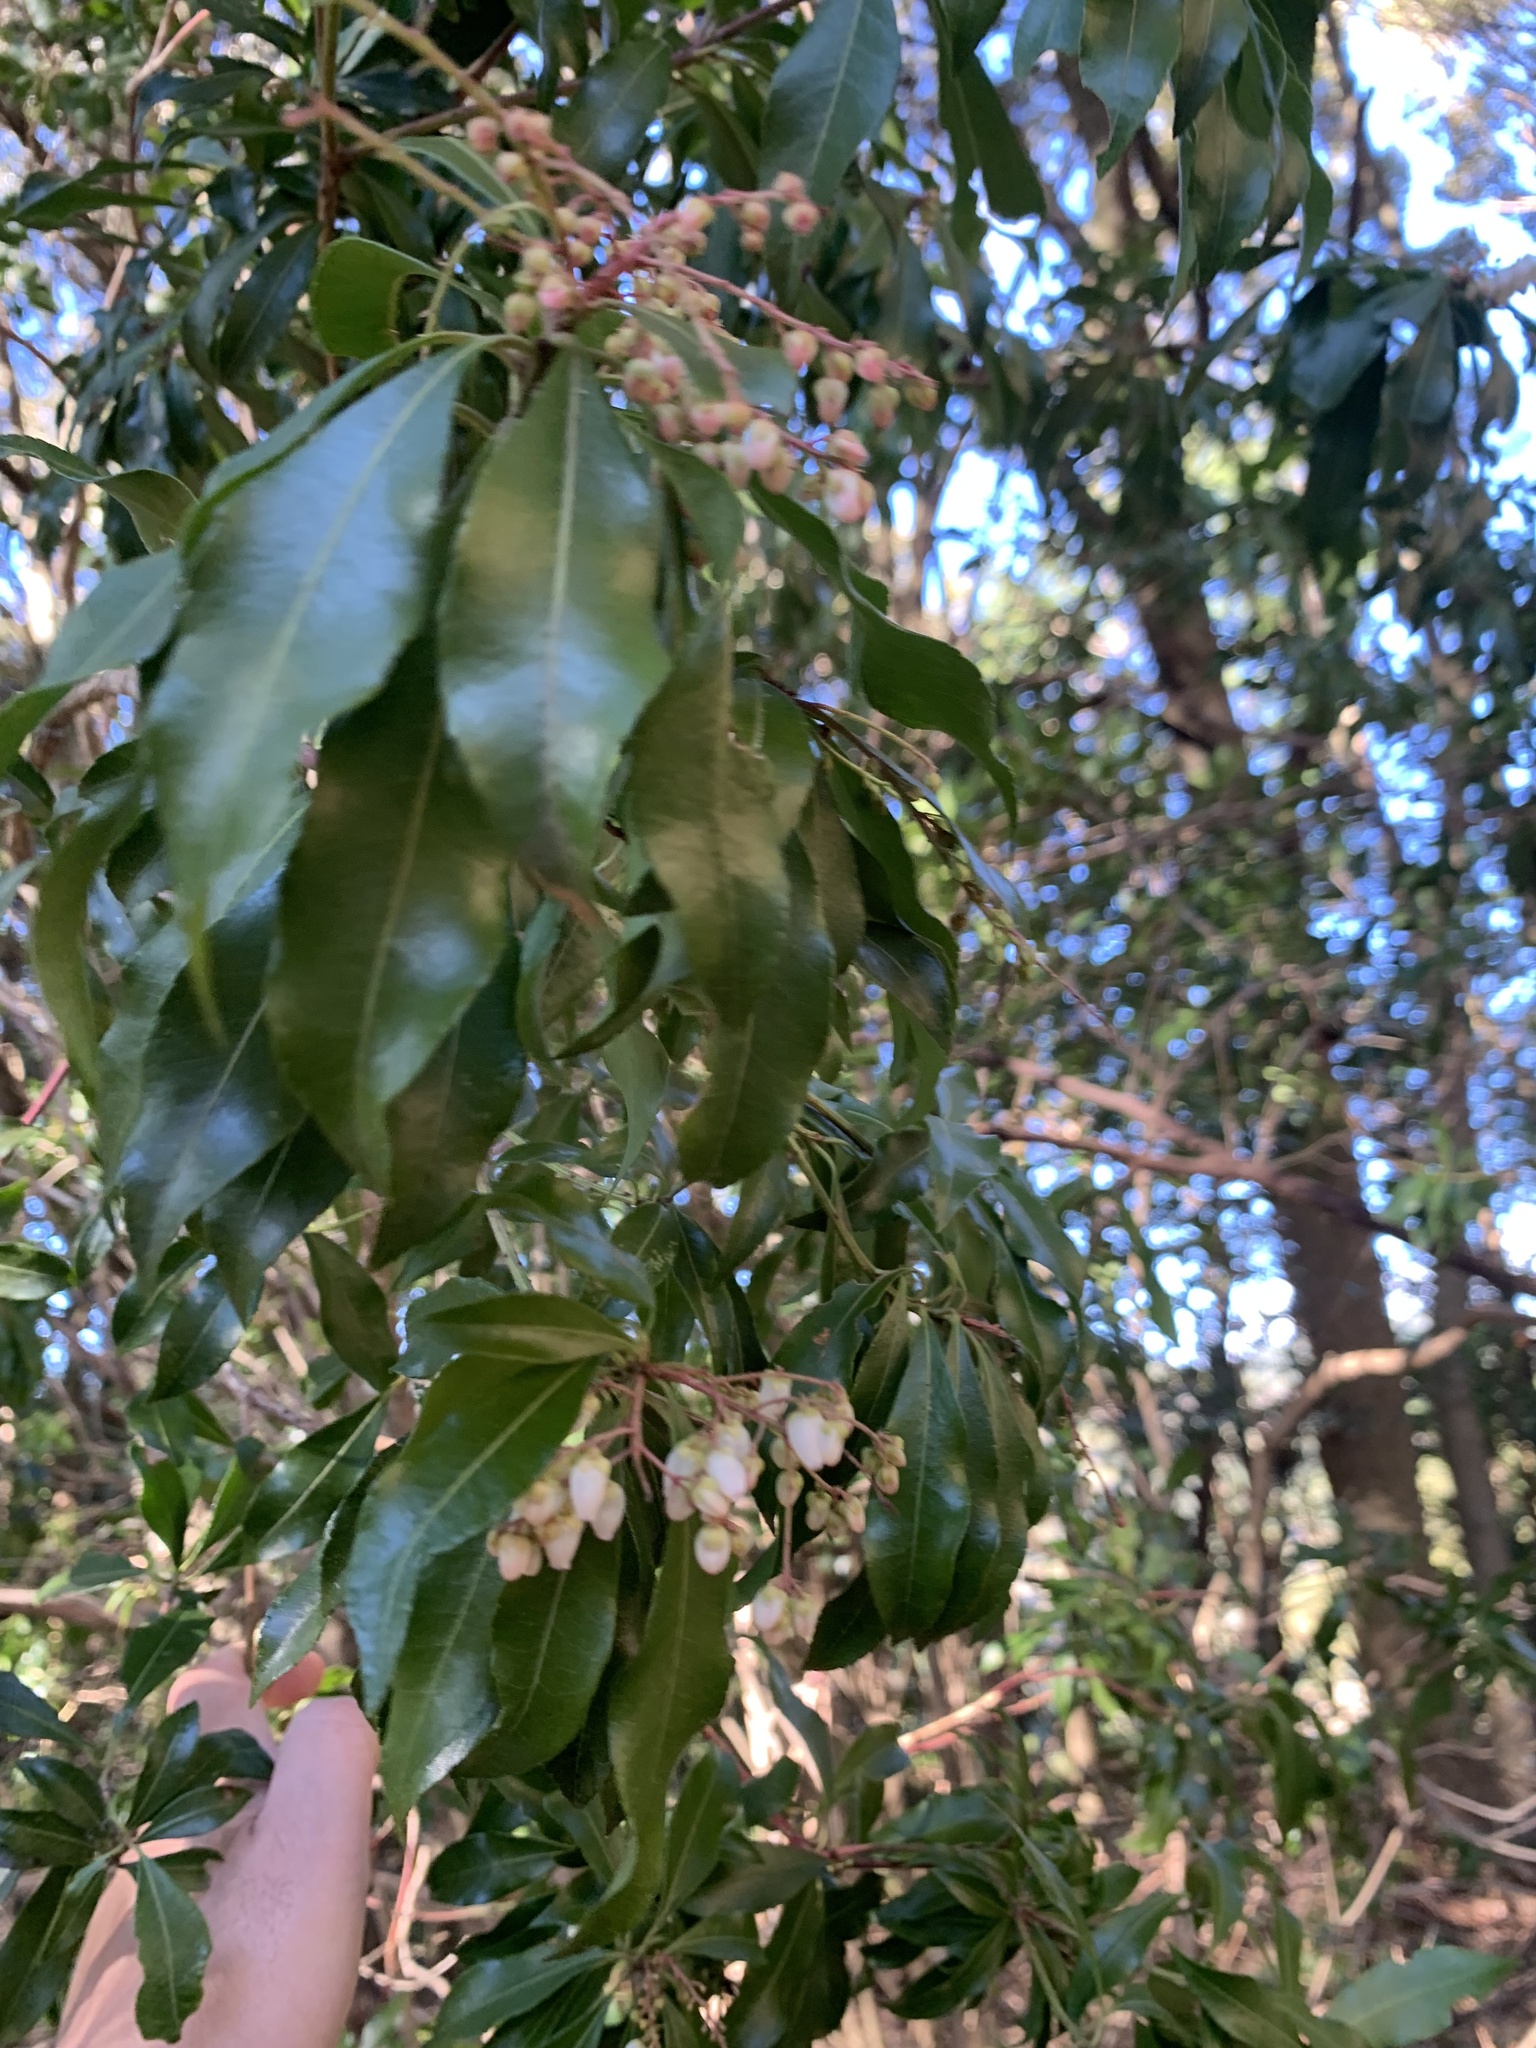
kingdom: Plantae
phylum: Tracheophyta
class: Magnoliopsida
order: Ericales
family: Ericaceae
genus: Pieris
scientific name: Pieris japonica
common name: Japanese pieris
